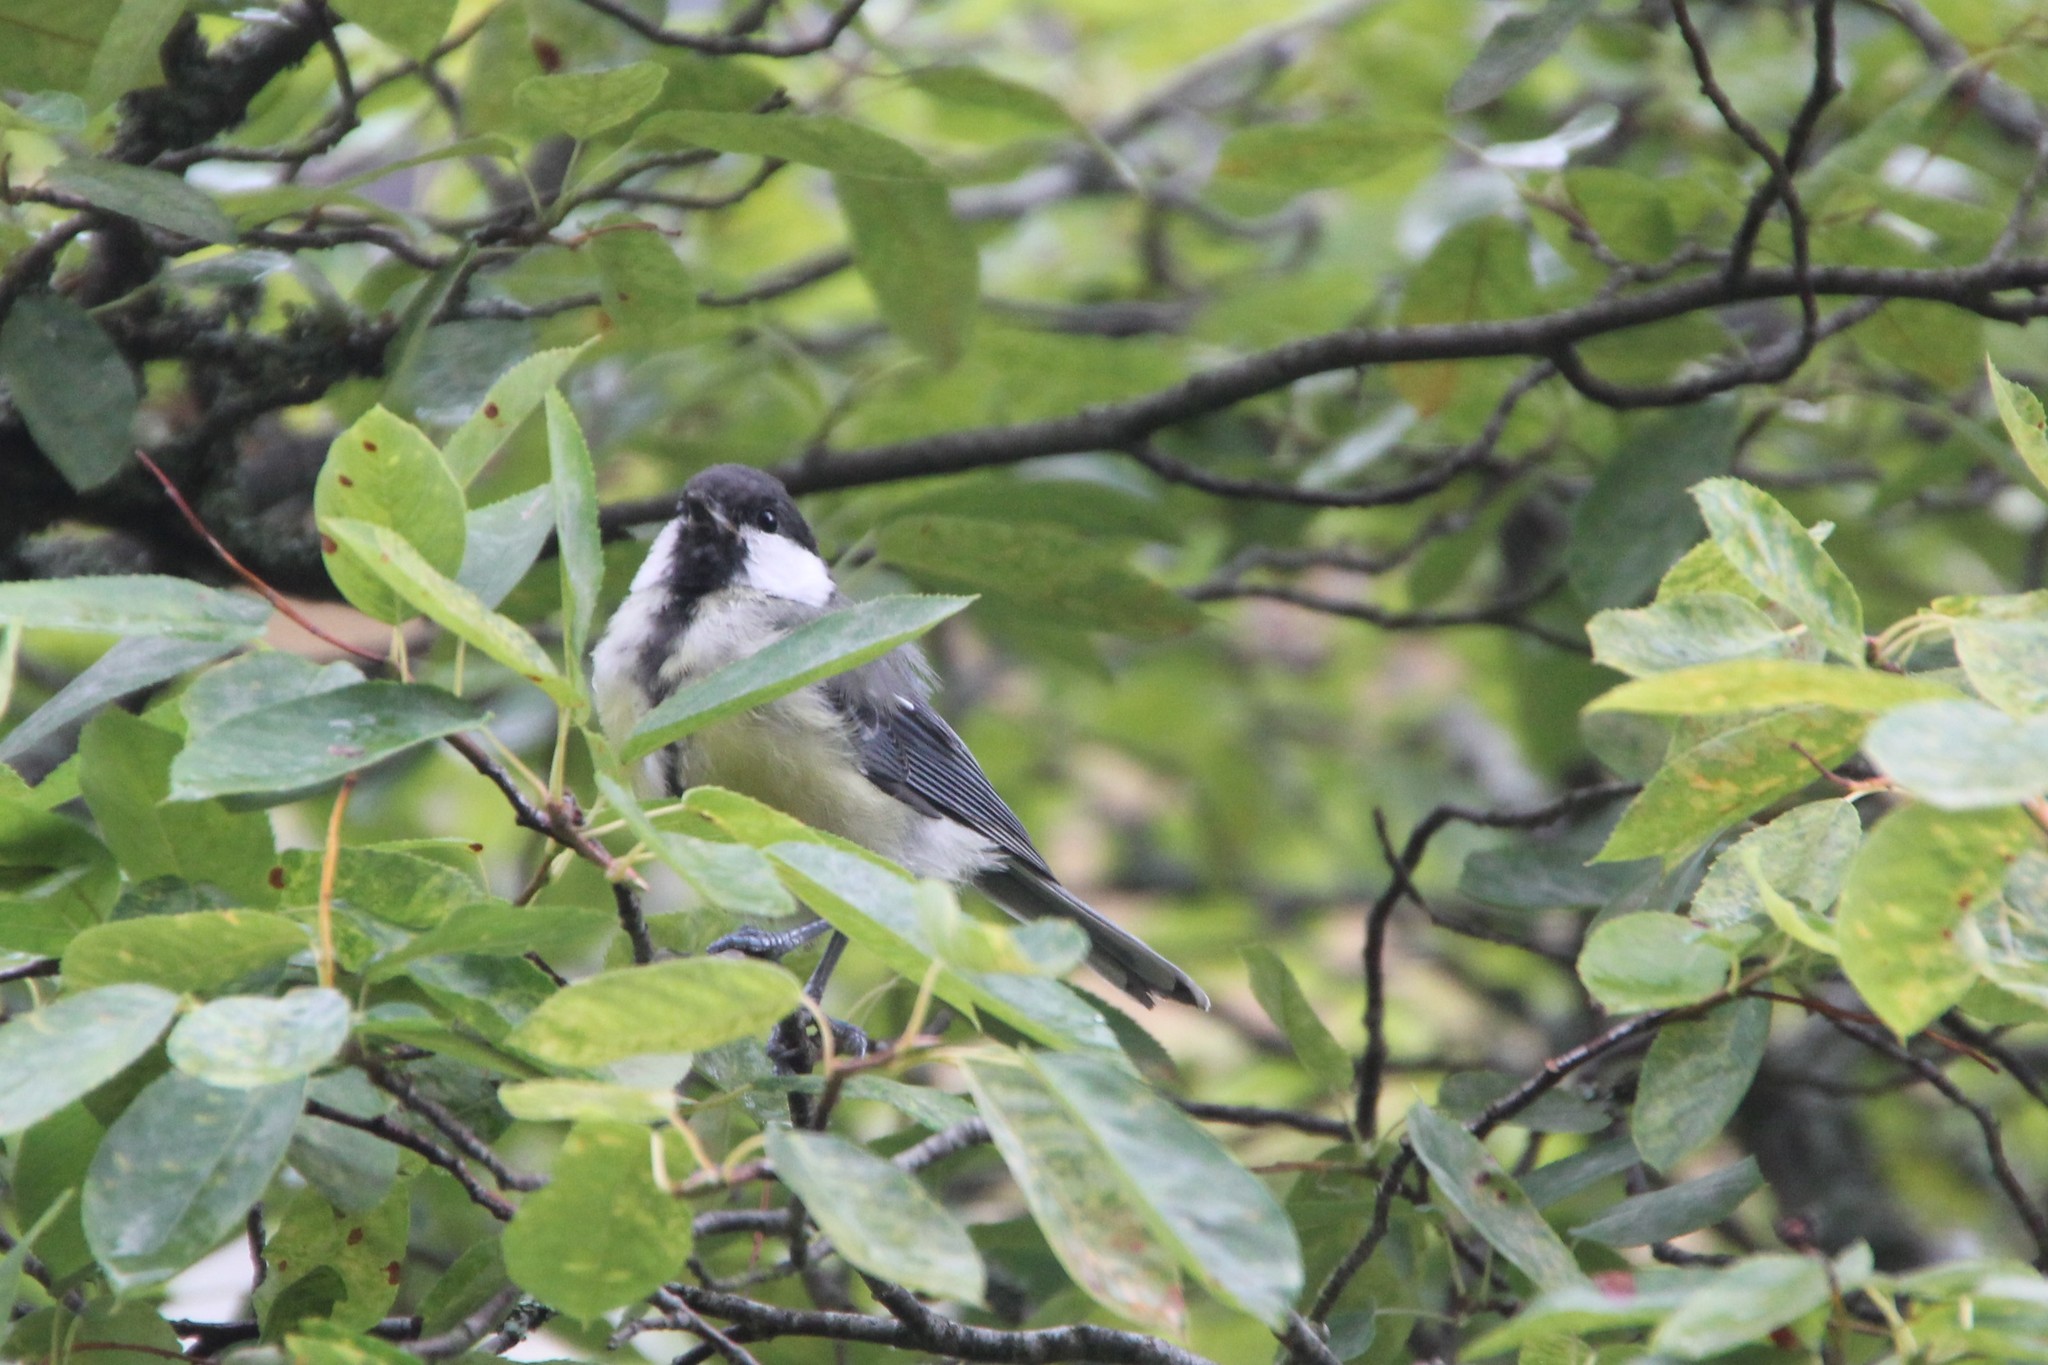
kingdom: Animalia
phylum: Chordata
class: Aves
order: Passeriformes
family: Paridae
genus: Parus
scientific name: Parus major
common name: Great tit
